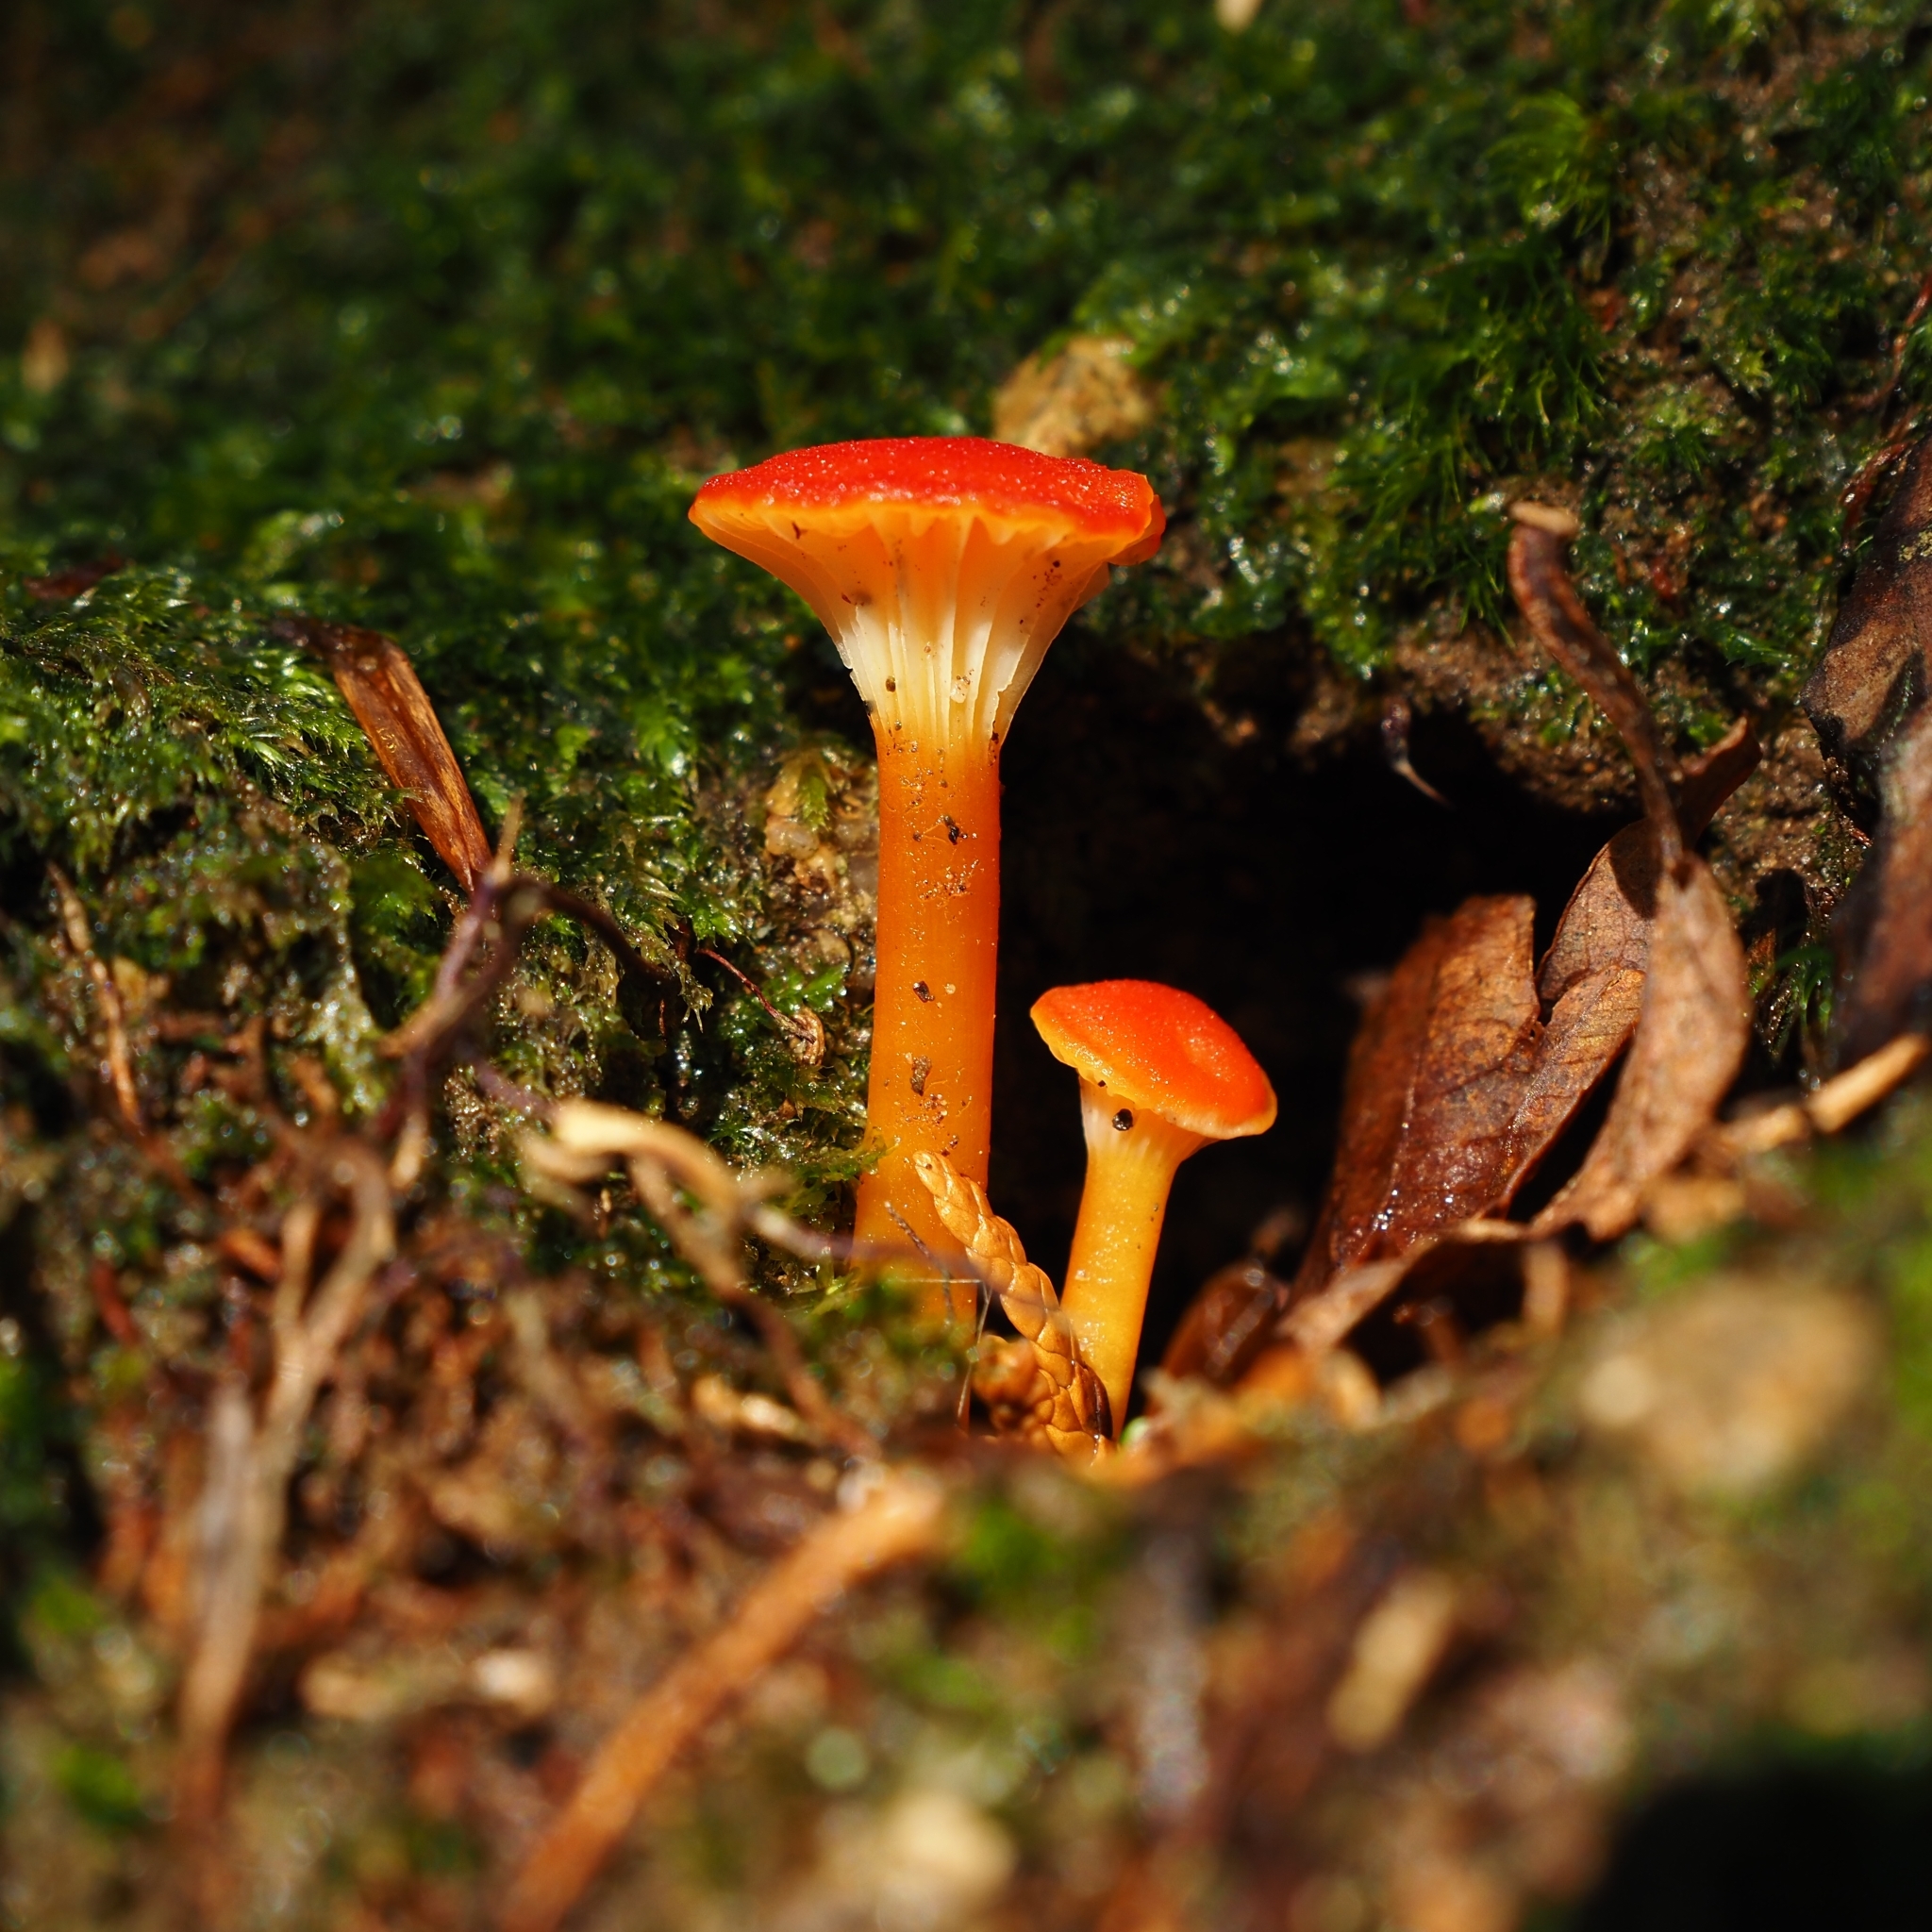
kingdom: Fungi
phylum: Basidiomycota
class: Agaricomycetes
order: Agaricales
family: Hygrophoraceae
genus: Hygrocybe
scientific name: Hygrocybe cantharellus
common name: Goblet waxcap
